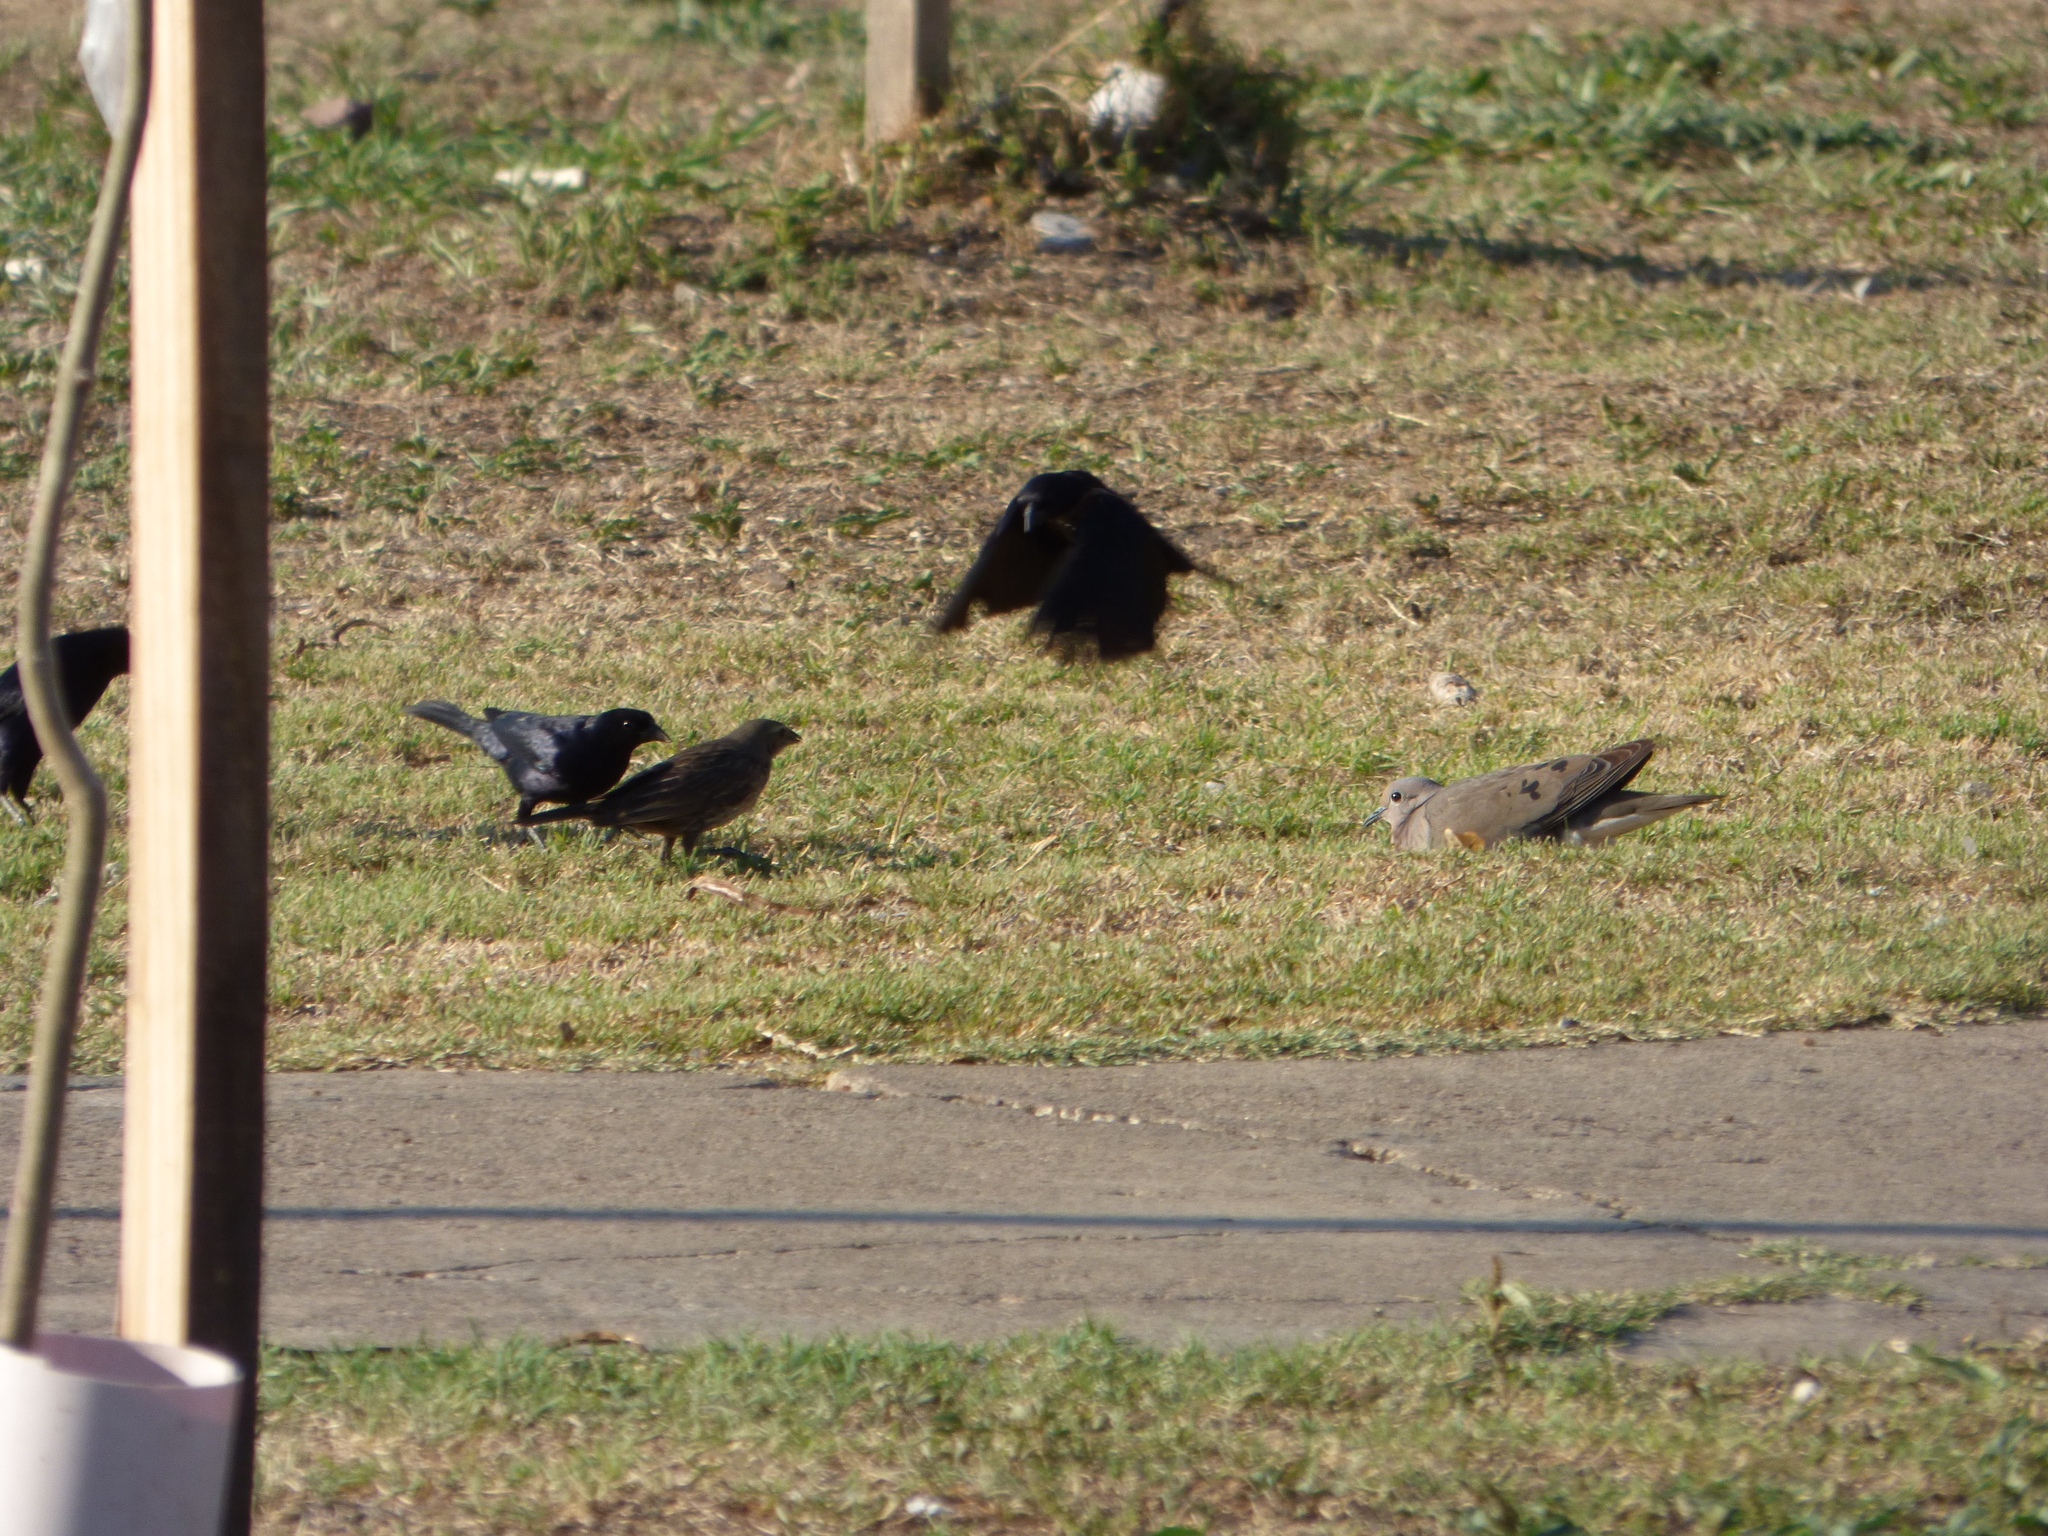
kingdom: Animalia
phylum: Chordata
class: Aves
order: Passeriformes
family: Icteridae
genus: Molothrus
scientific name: Molothrus bonariensis
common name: Shiny cowbird
